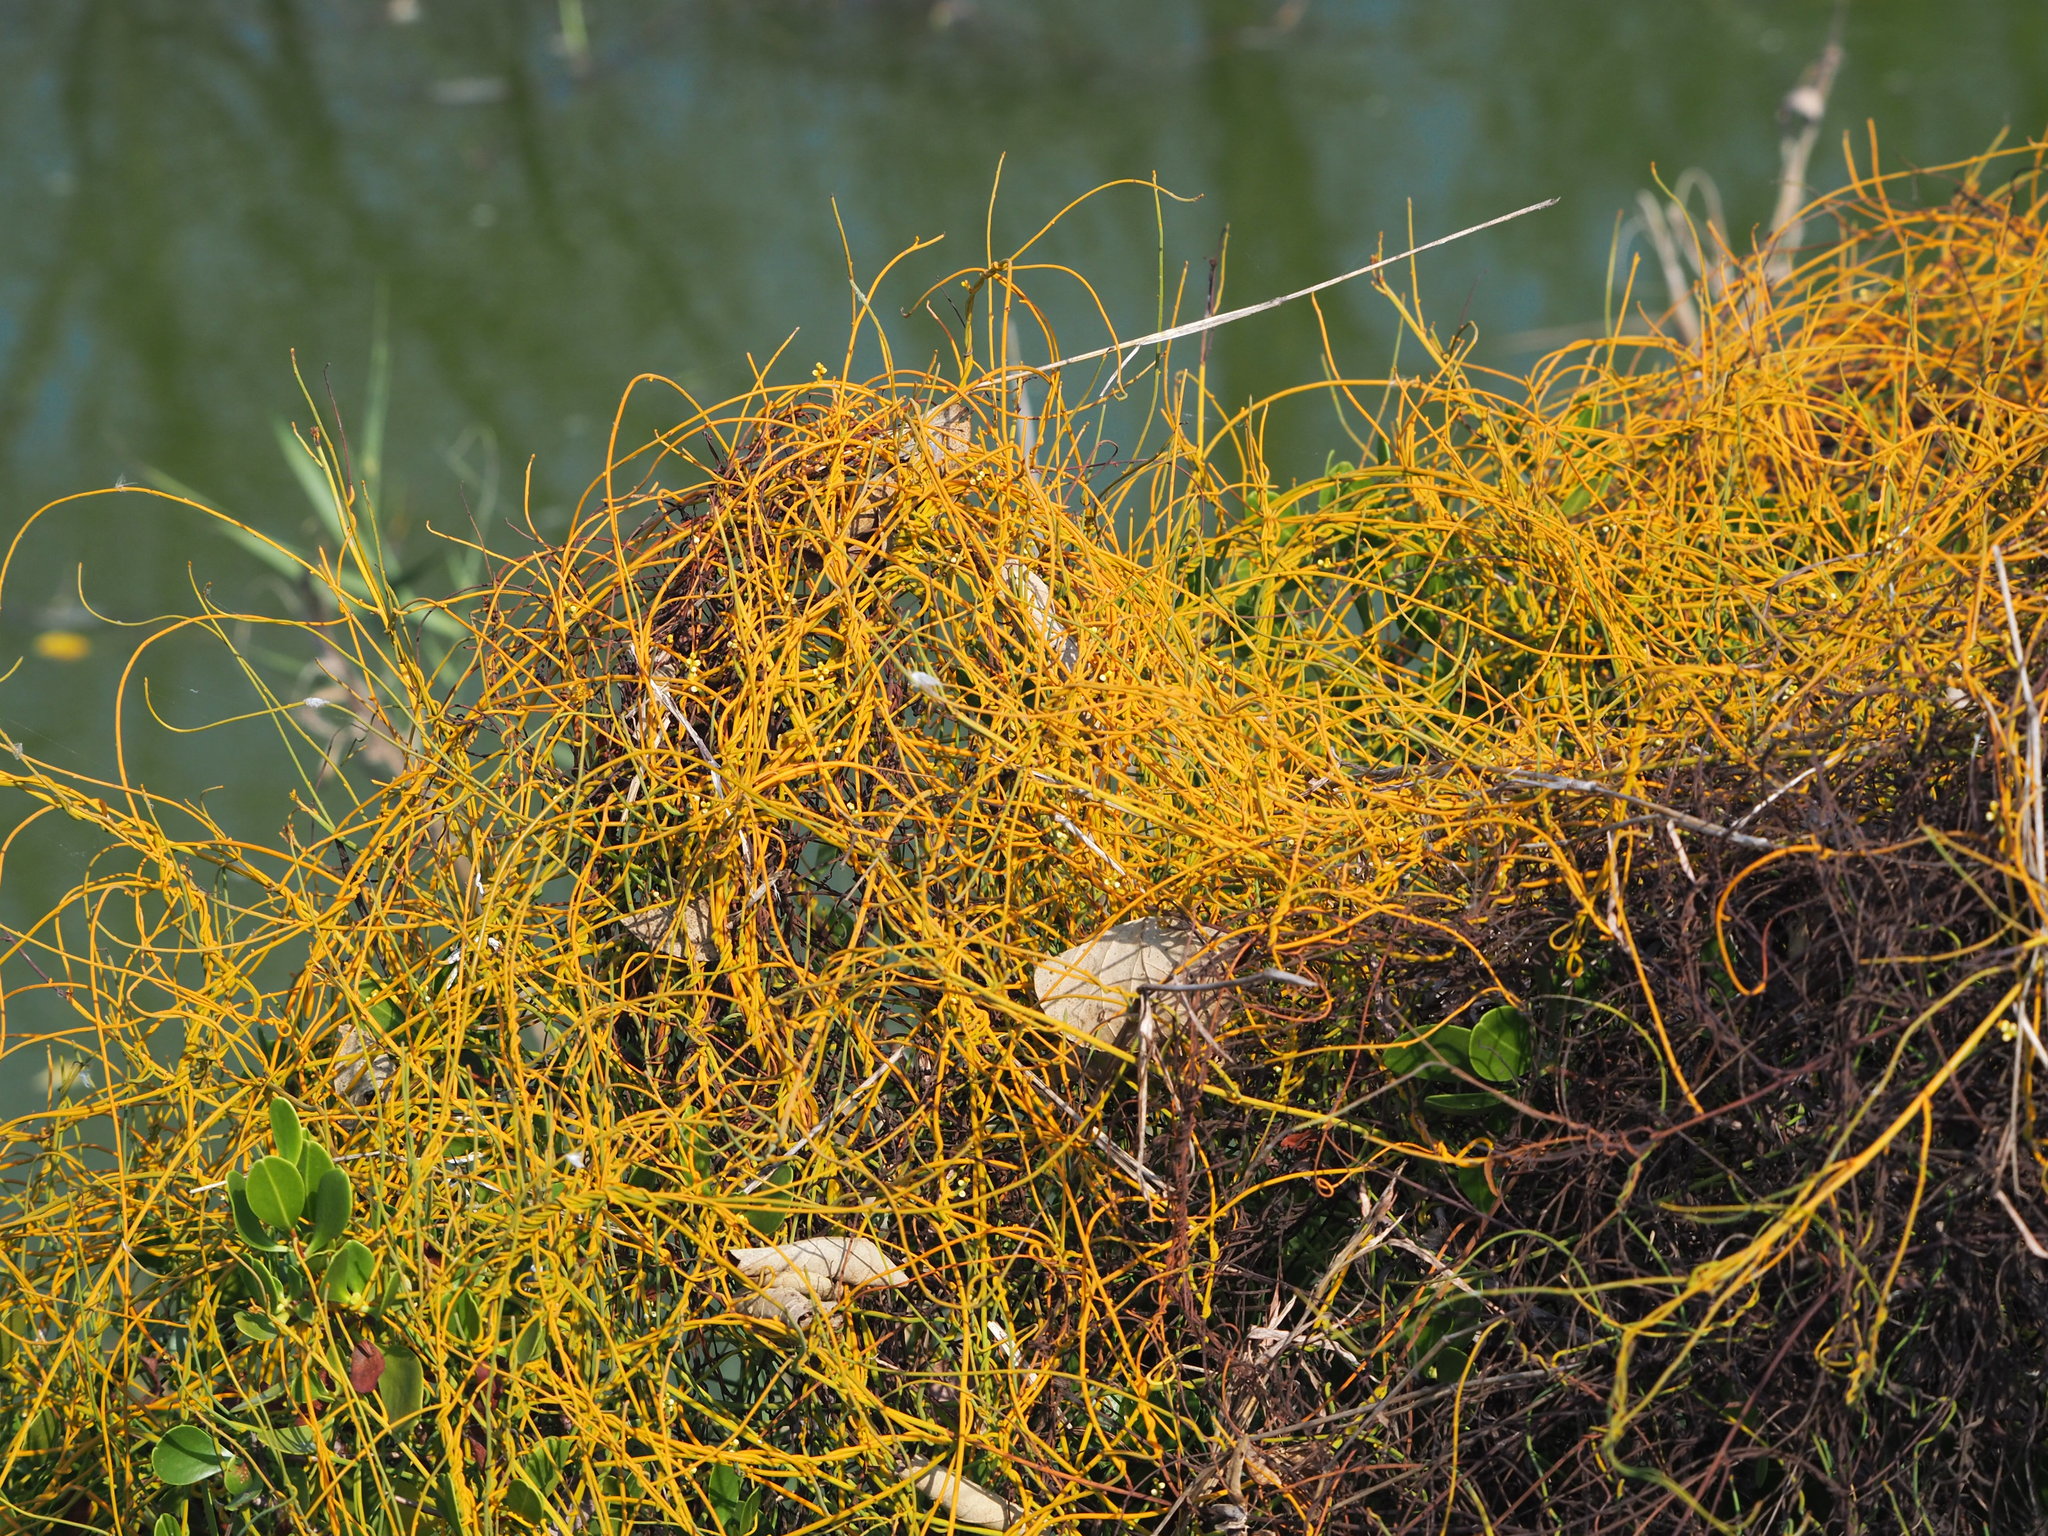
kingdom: Plantae
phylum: Tracheophyta
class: Magnoliopsida
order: Laurales
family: Lauraceae
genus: Cassytha
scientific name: Cassytha filiformis
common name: Dodder-laurel
